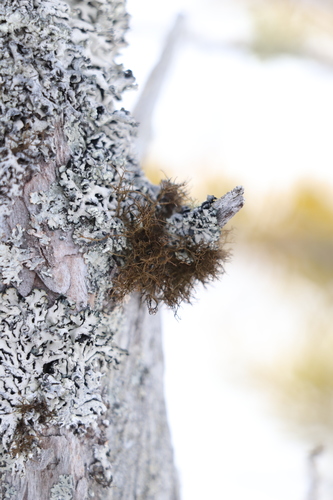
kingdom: Fungi
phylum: Ascomycota
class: Lecanoromycetes
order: Lecanorales
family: Parmeliaceae
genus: Bryoria
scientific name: Bryoria
